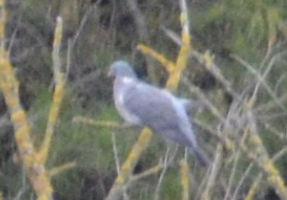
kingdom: Animalia
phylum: Chordata
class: Aves
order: Columbiformes
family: Columbidae
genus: Columba
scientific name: Columba palumbus
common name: Common wood pigeon
